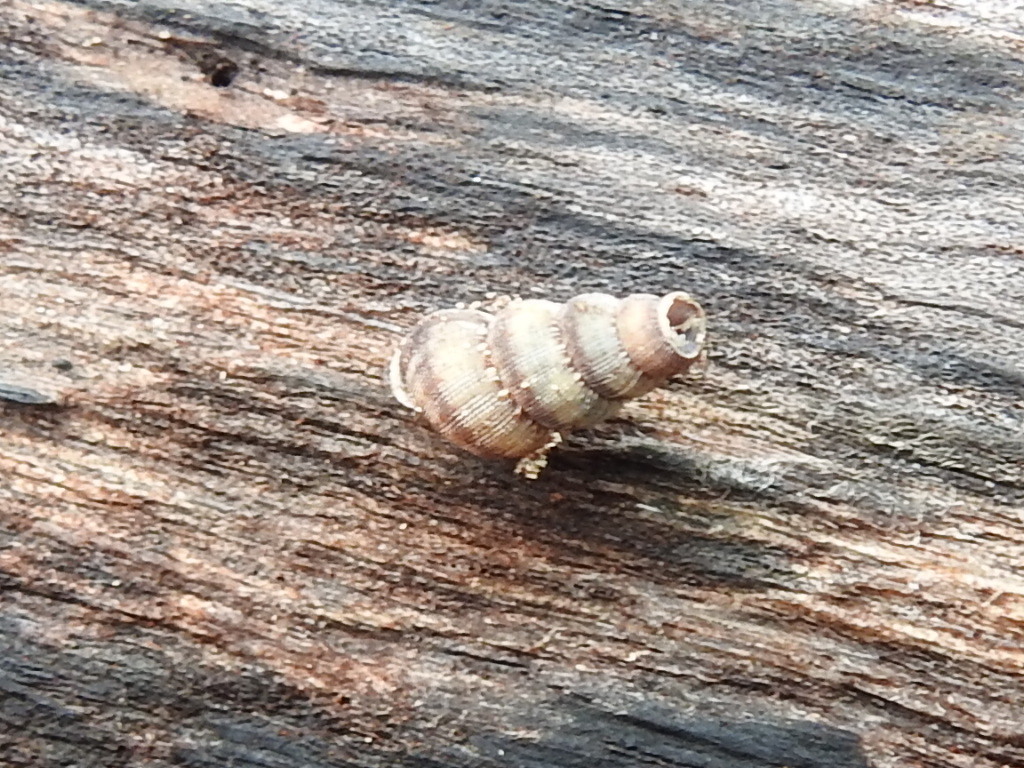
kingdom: Animalia
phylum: Mollusca
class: Gastropoda
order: Littorinimorpha
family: Annulariidae
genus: Parachondria
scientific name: Parachondria dentata
